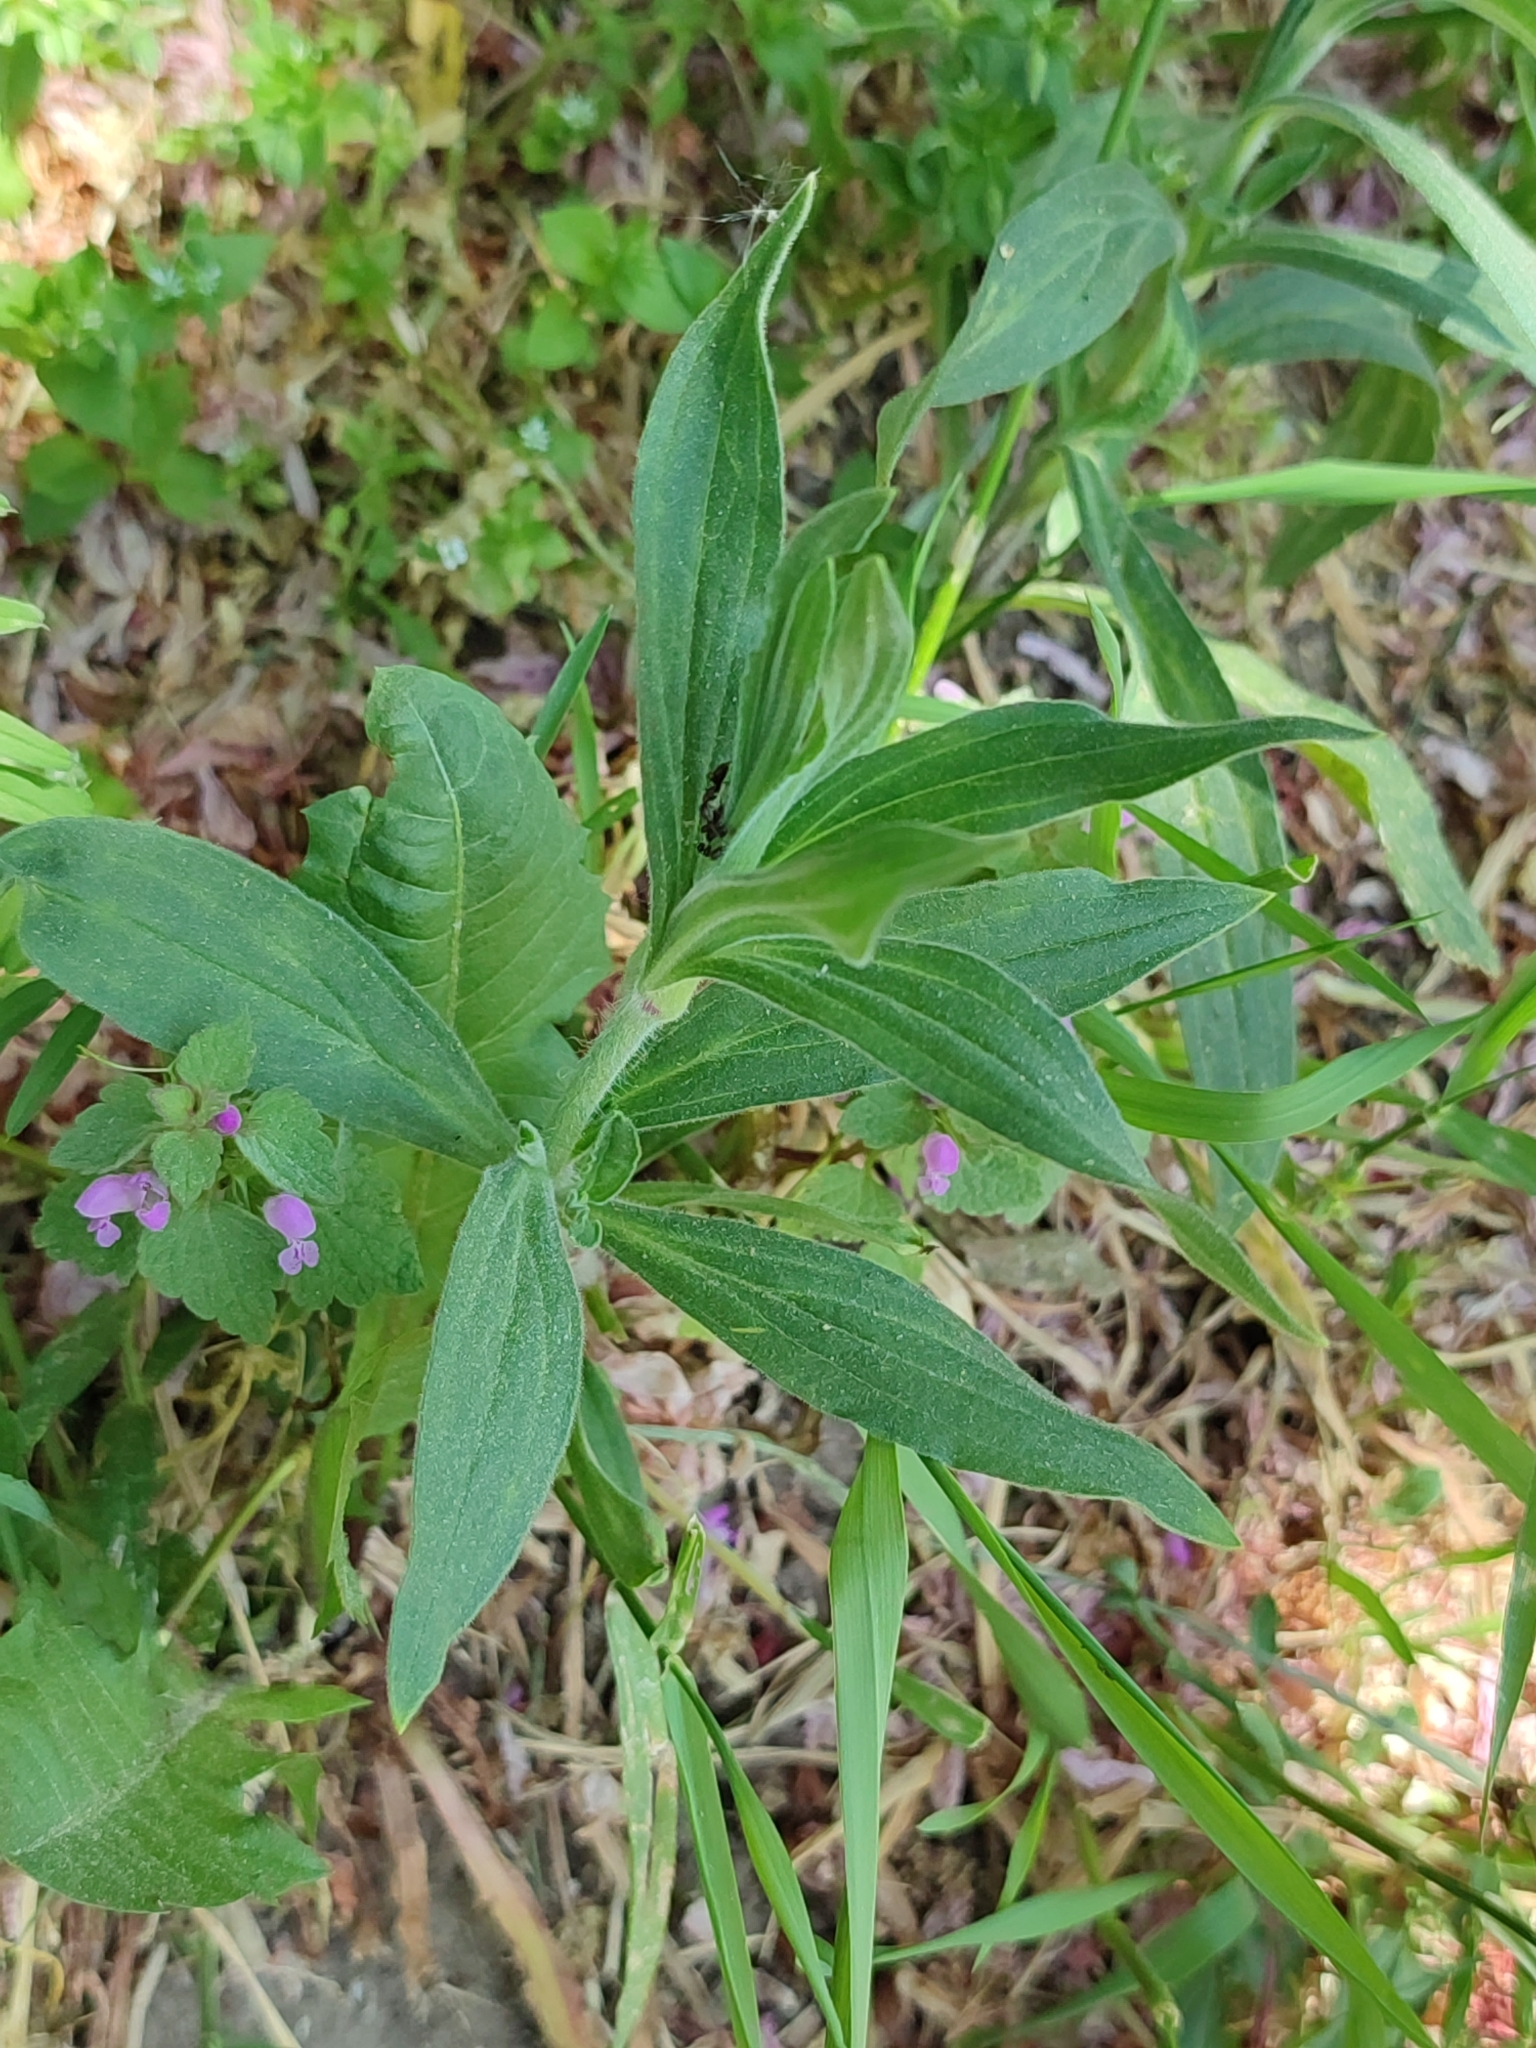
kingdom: Plantae
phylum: Tracheophyta
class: Magnoliopsida
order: Caryophyllales
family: Caryophyllaceae
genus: Silene
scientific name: Silene latifolia
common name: White campion
